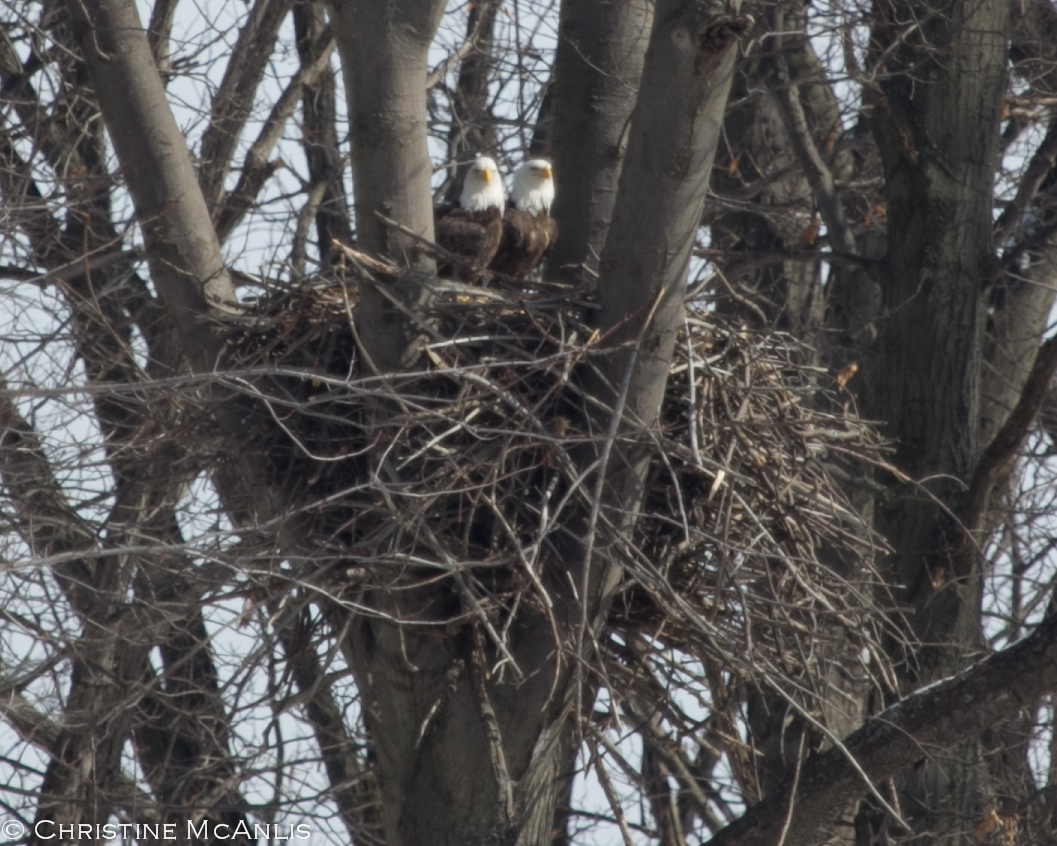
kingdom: Animalia
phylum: Chordata
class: Aves
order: Accipitriformes
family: Accipitridae
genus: Haliaeetus
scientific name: Haliaeetus leucocephalus
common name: Bald eagle
